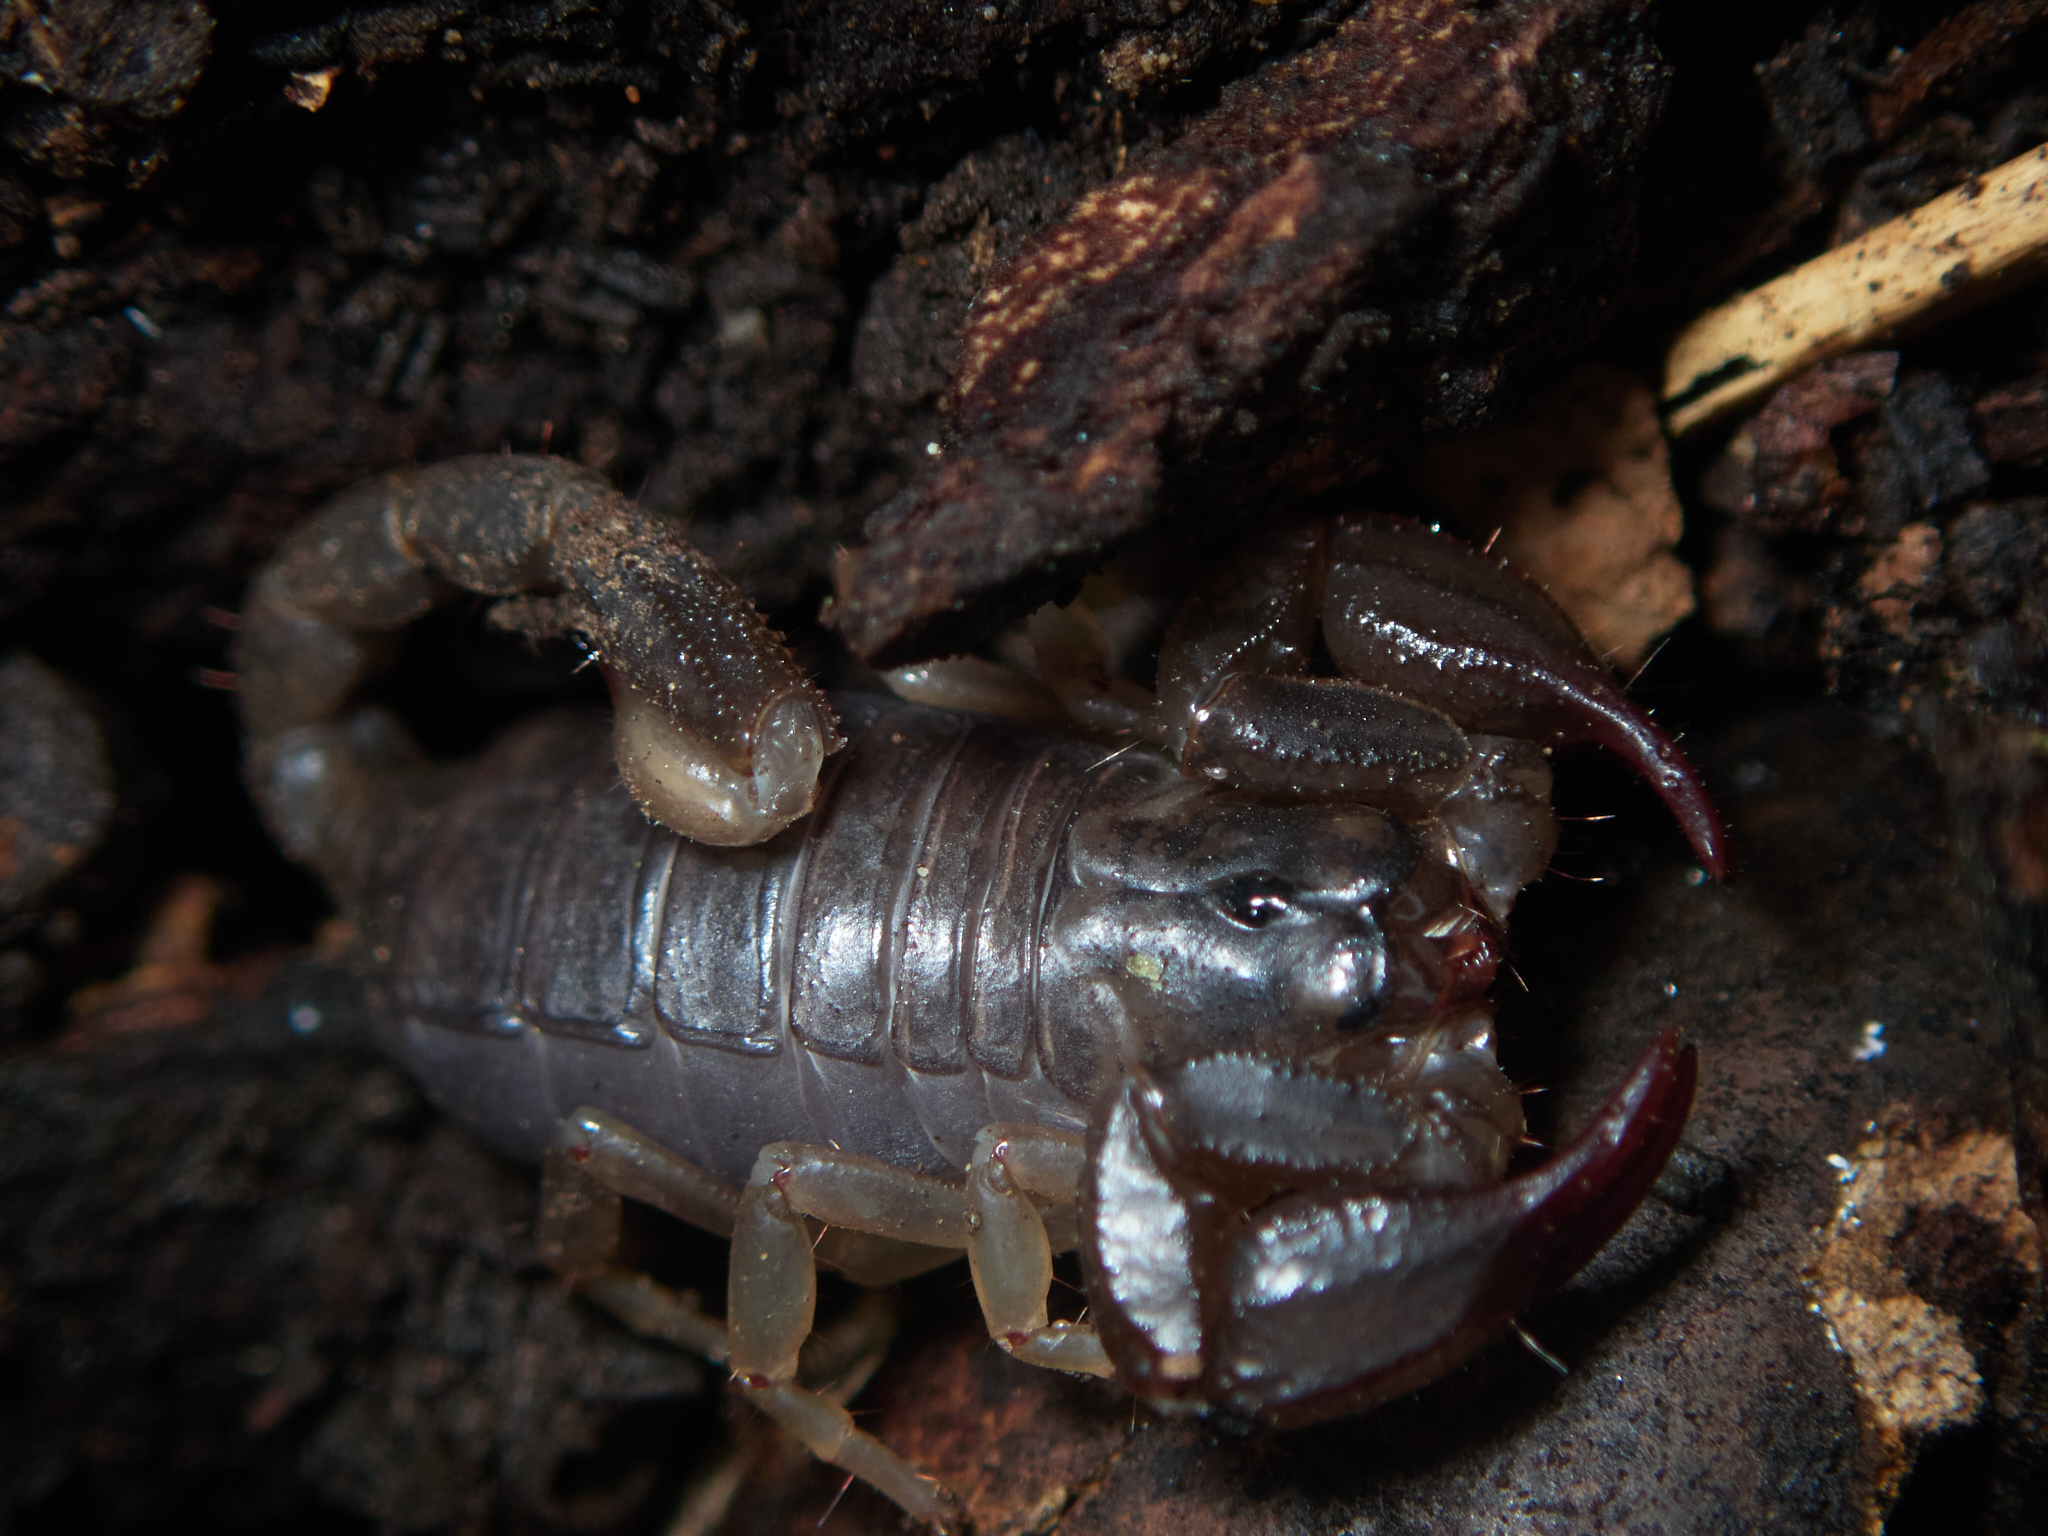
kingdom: Animalia
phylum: Arthropoda
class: Arachnida
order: Scorpiones
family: Chactidae
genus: Uroctonus
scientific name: Uroctonus mordax
